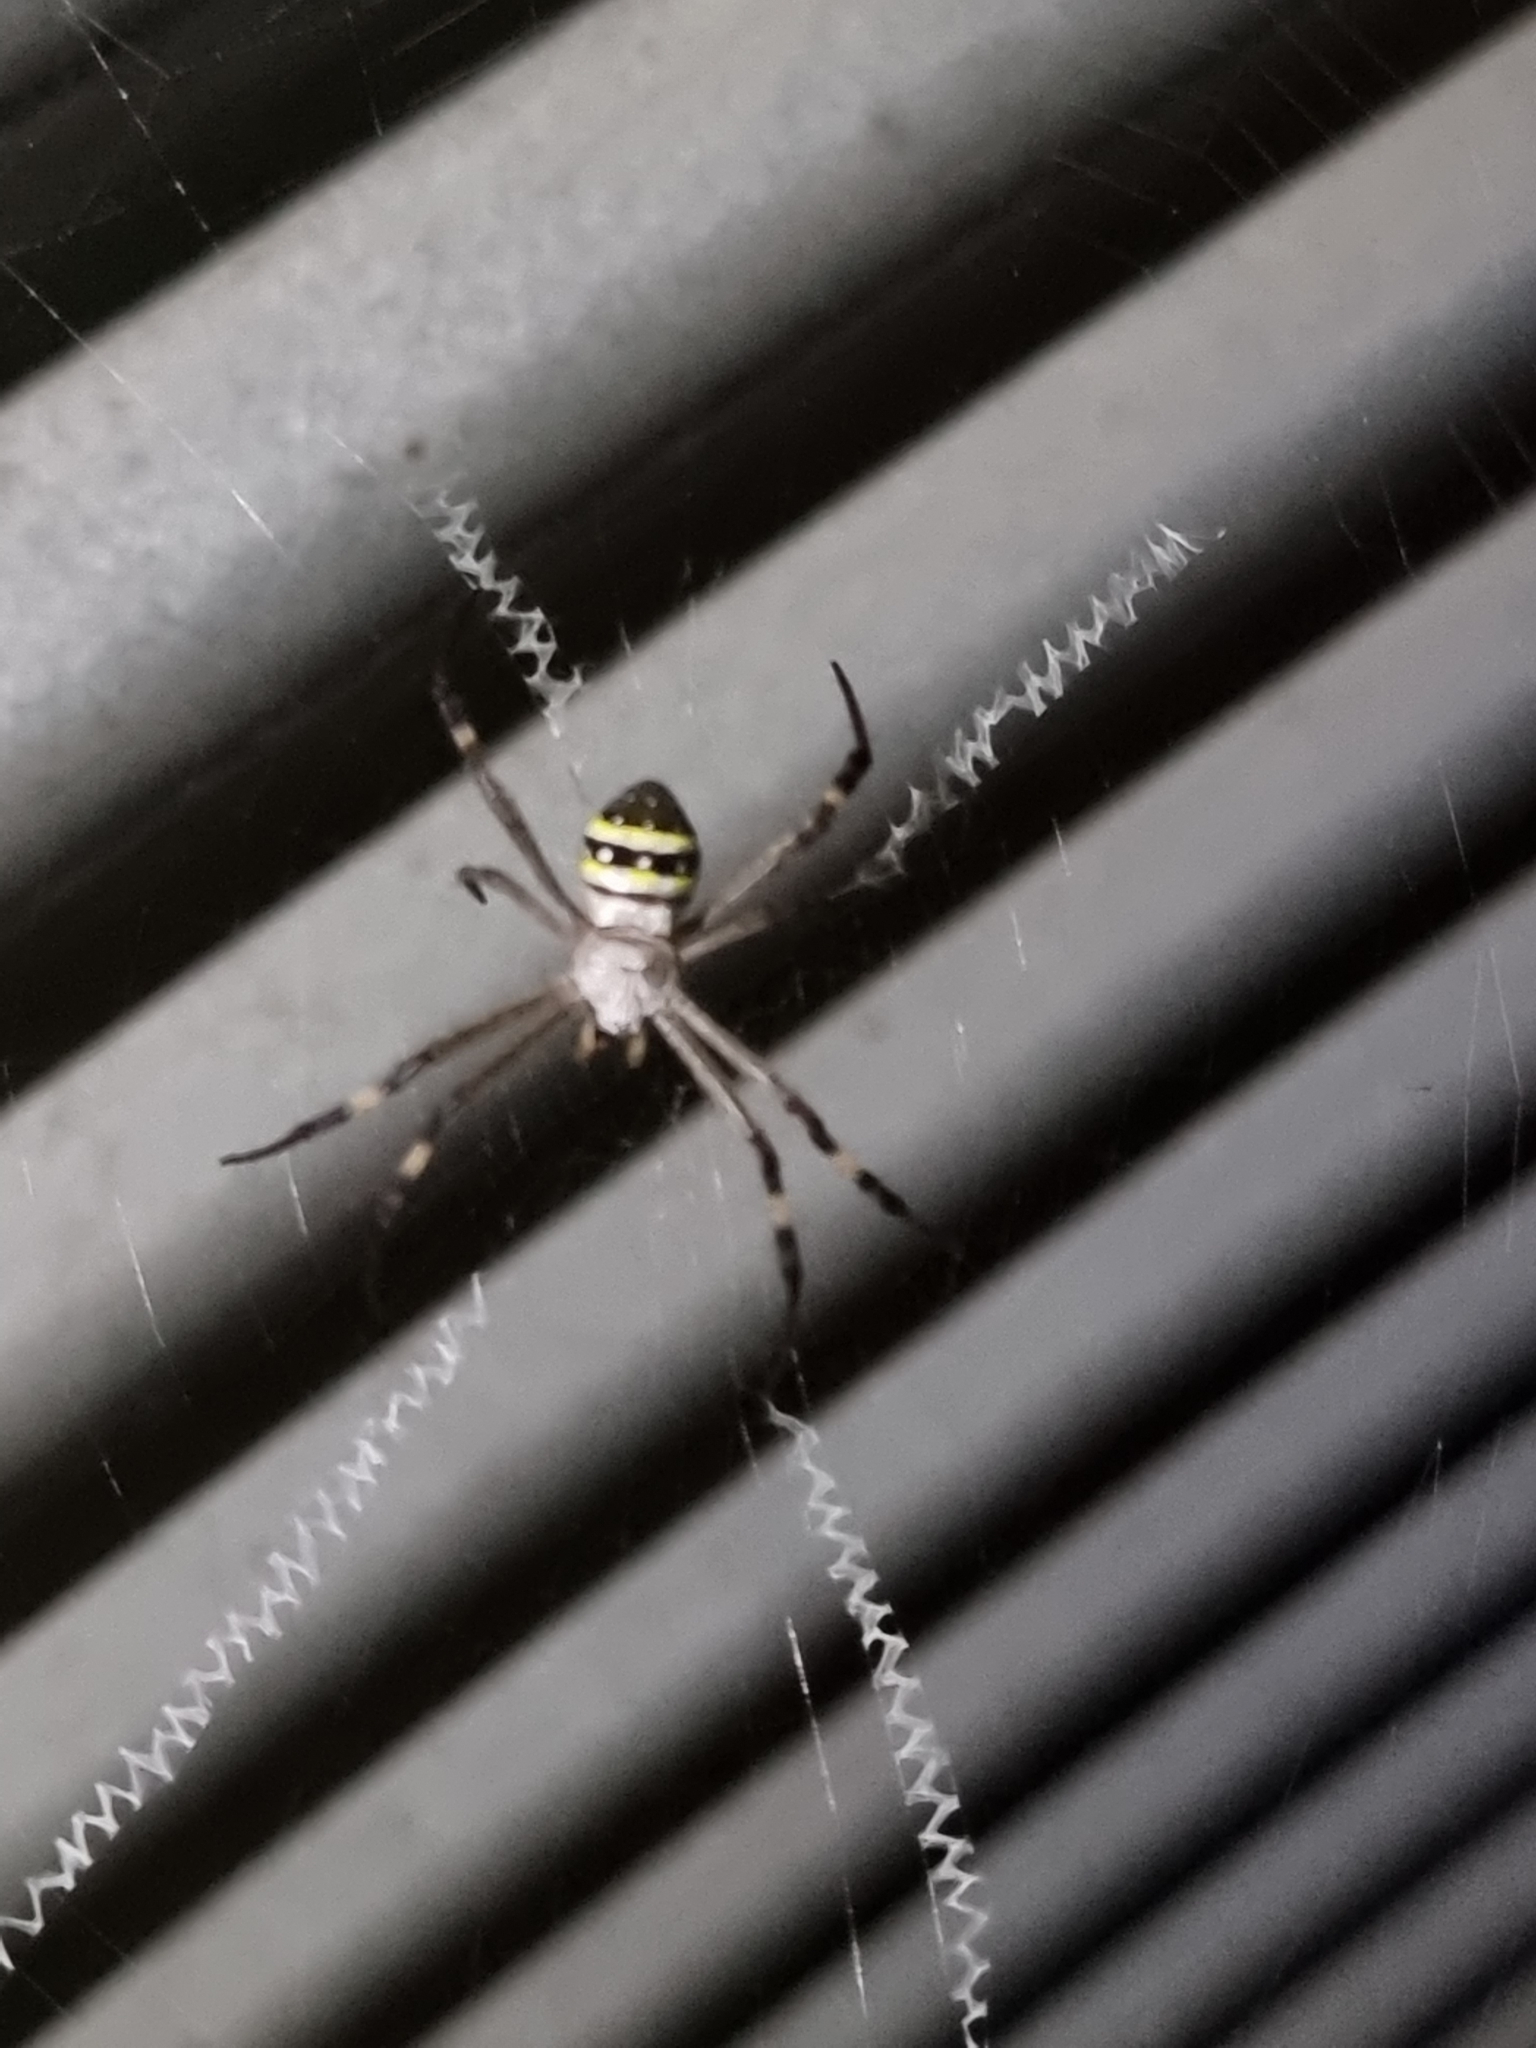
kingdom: Animalia
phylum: Arthropoda
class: Arachnida
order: Araneae
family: Araneidae
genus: Argiope
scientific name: Argiope keyserlingi
